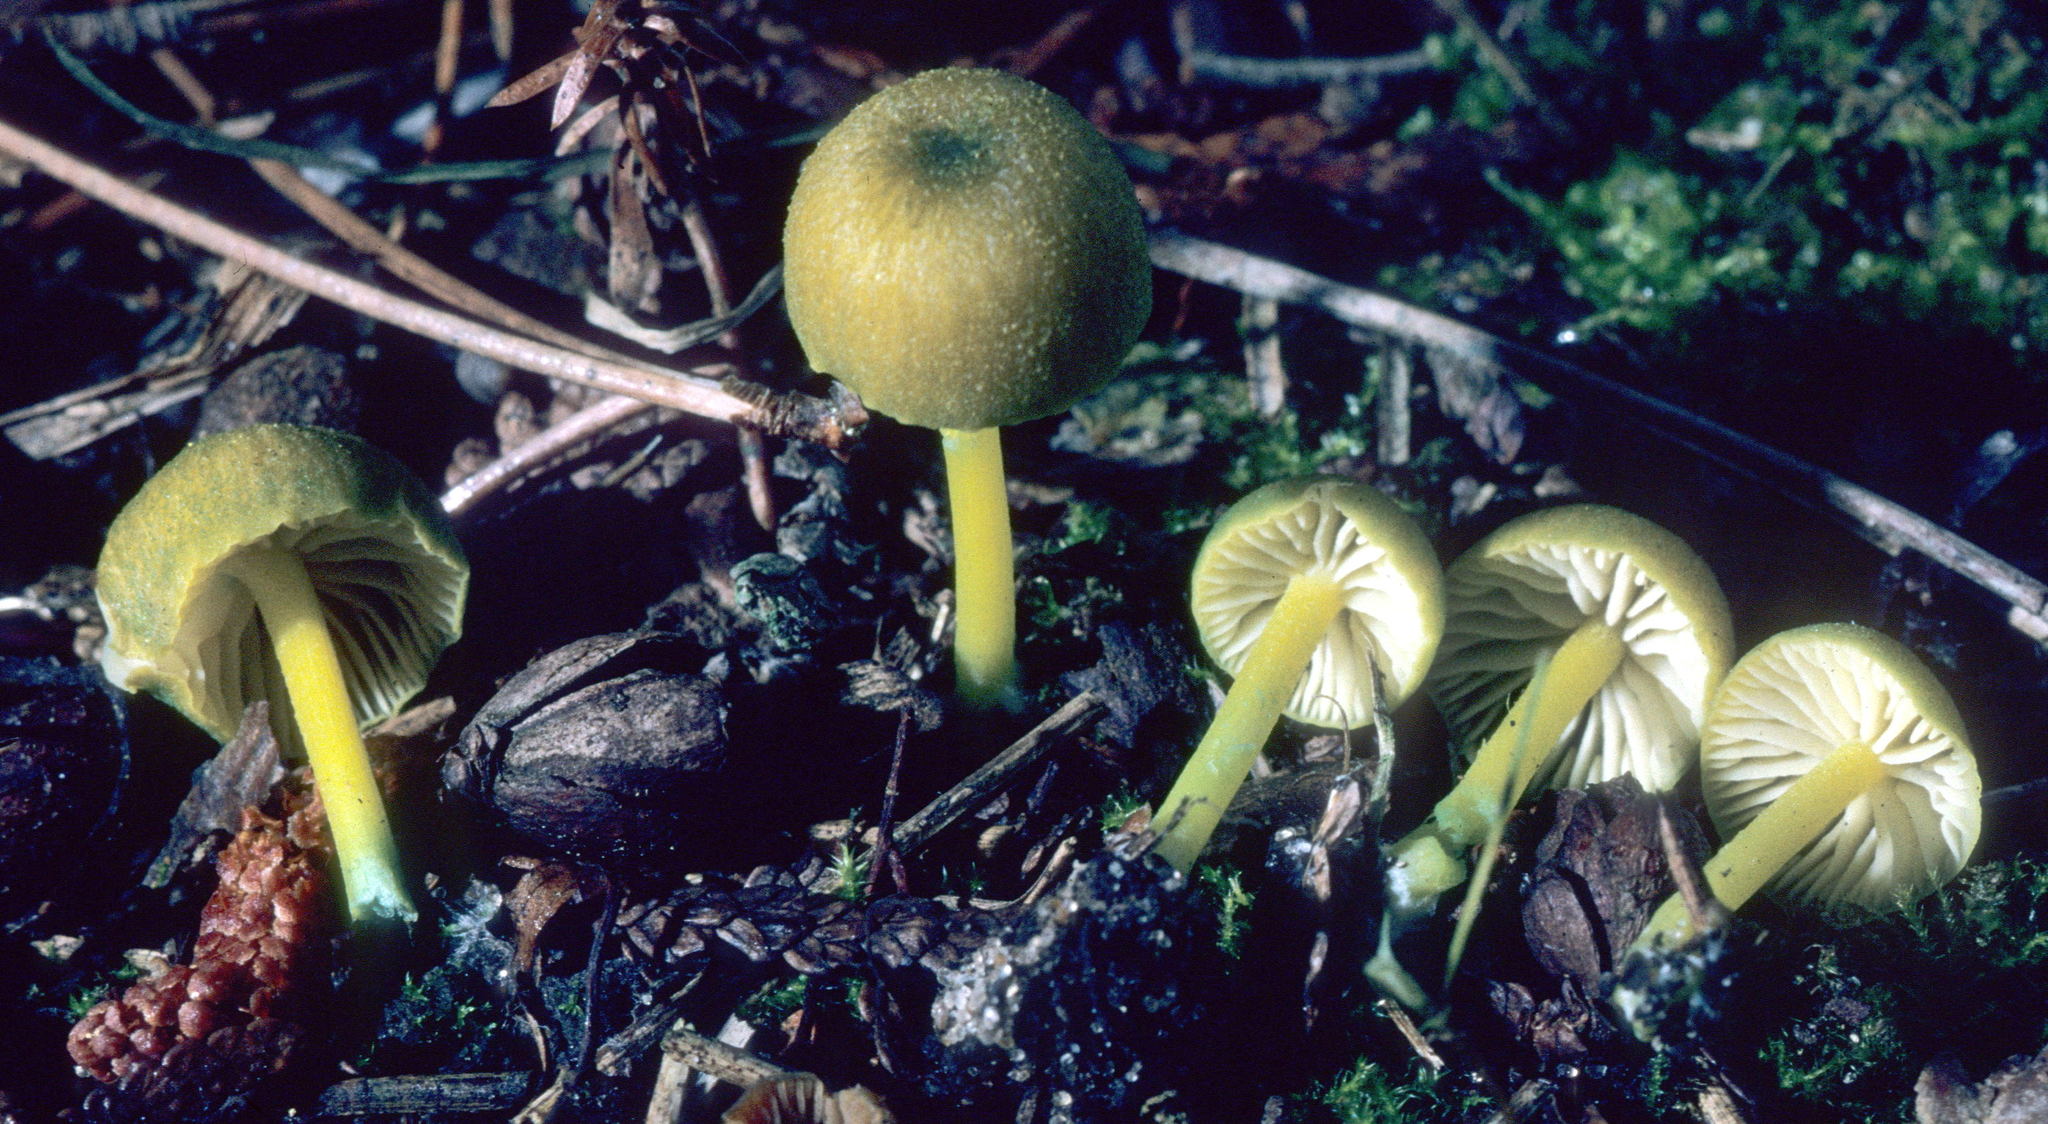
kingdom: Fungi
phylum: Basidiomycota
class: Agaricomycetes
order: Agaricales
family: Entolomataceae
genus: Entoloma
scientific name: Entoloma incanum
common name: Mousepee pinkgill
